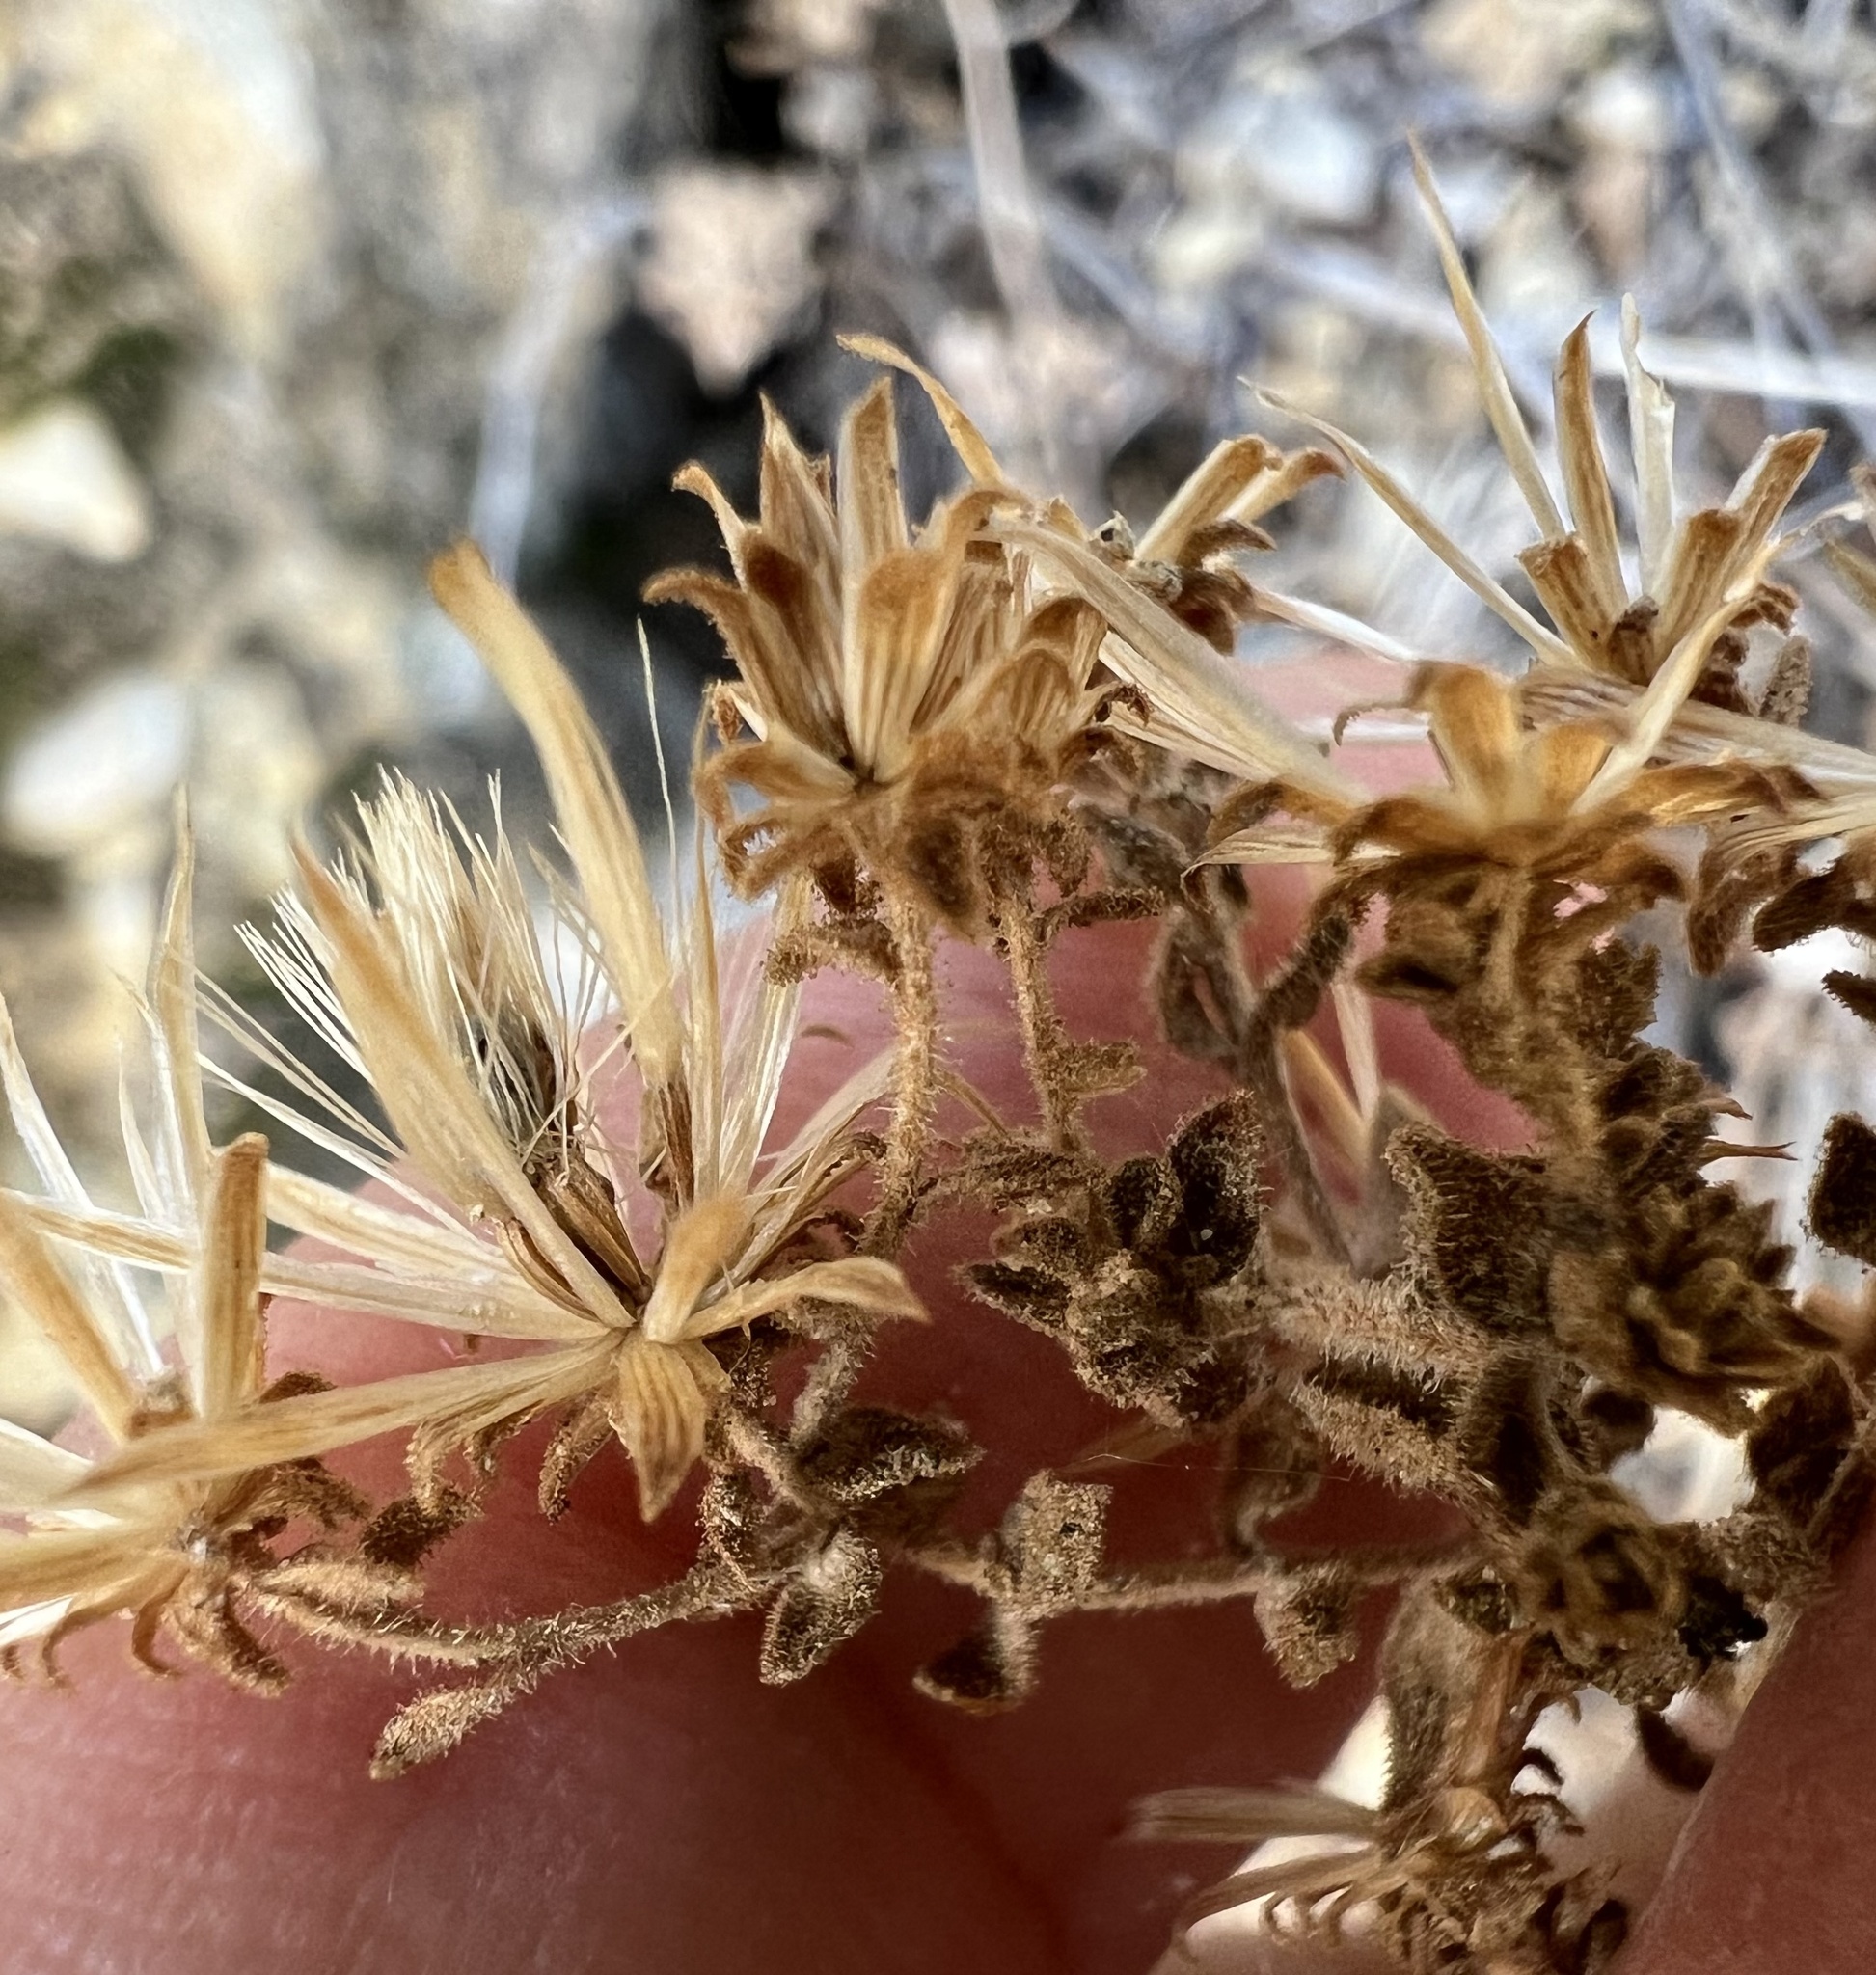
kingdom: Plantae
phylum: Tracheophyta
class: Magnoliopsida
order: Asterales
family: Asteraceae
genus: Brickellia
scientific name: Brickellia microphylla
